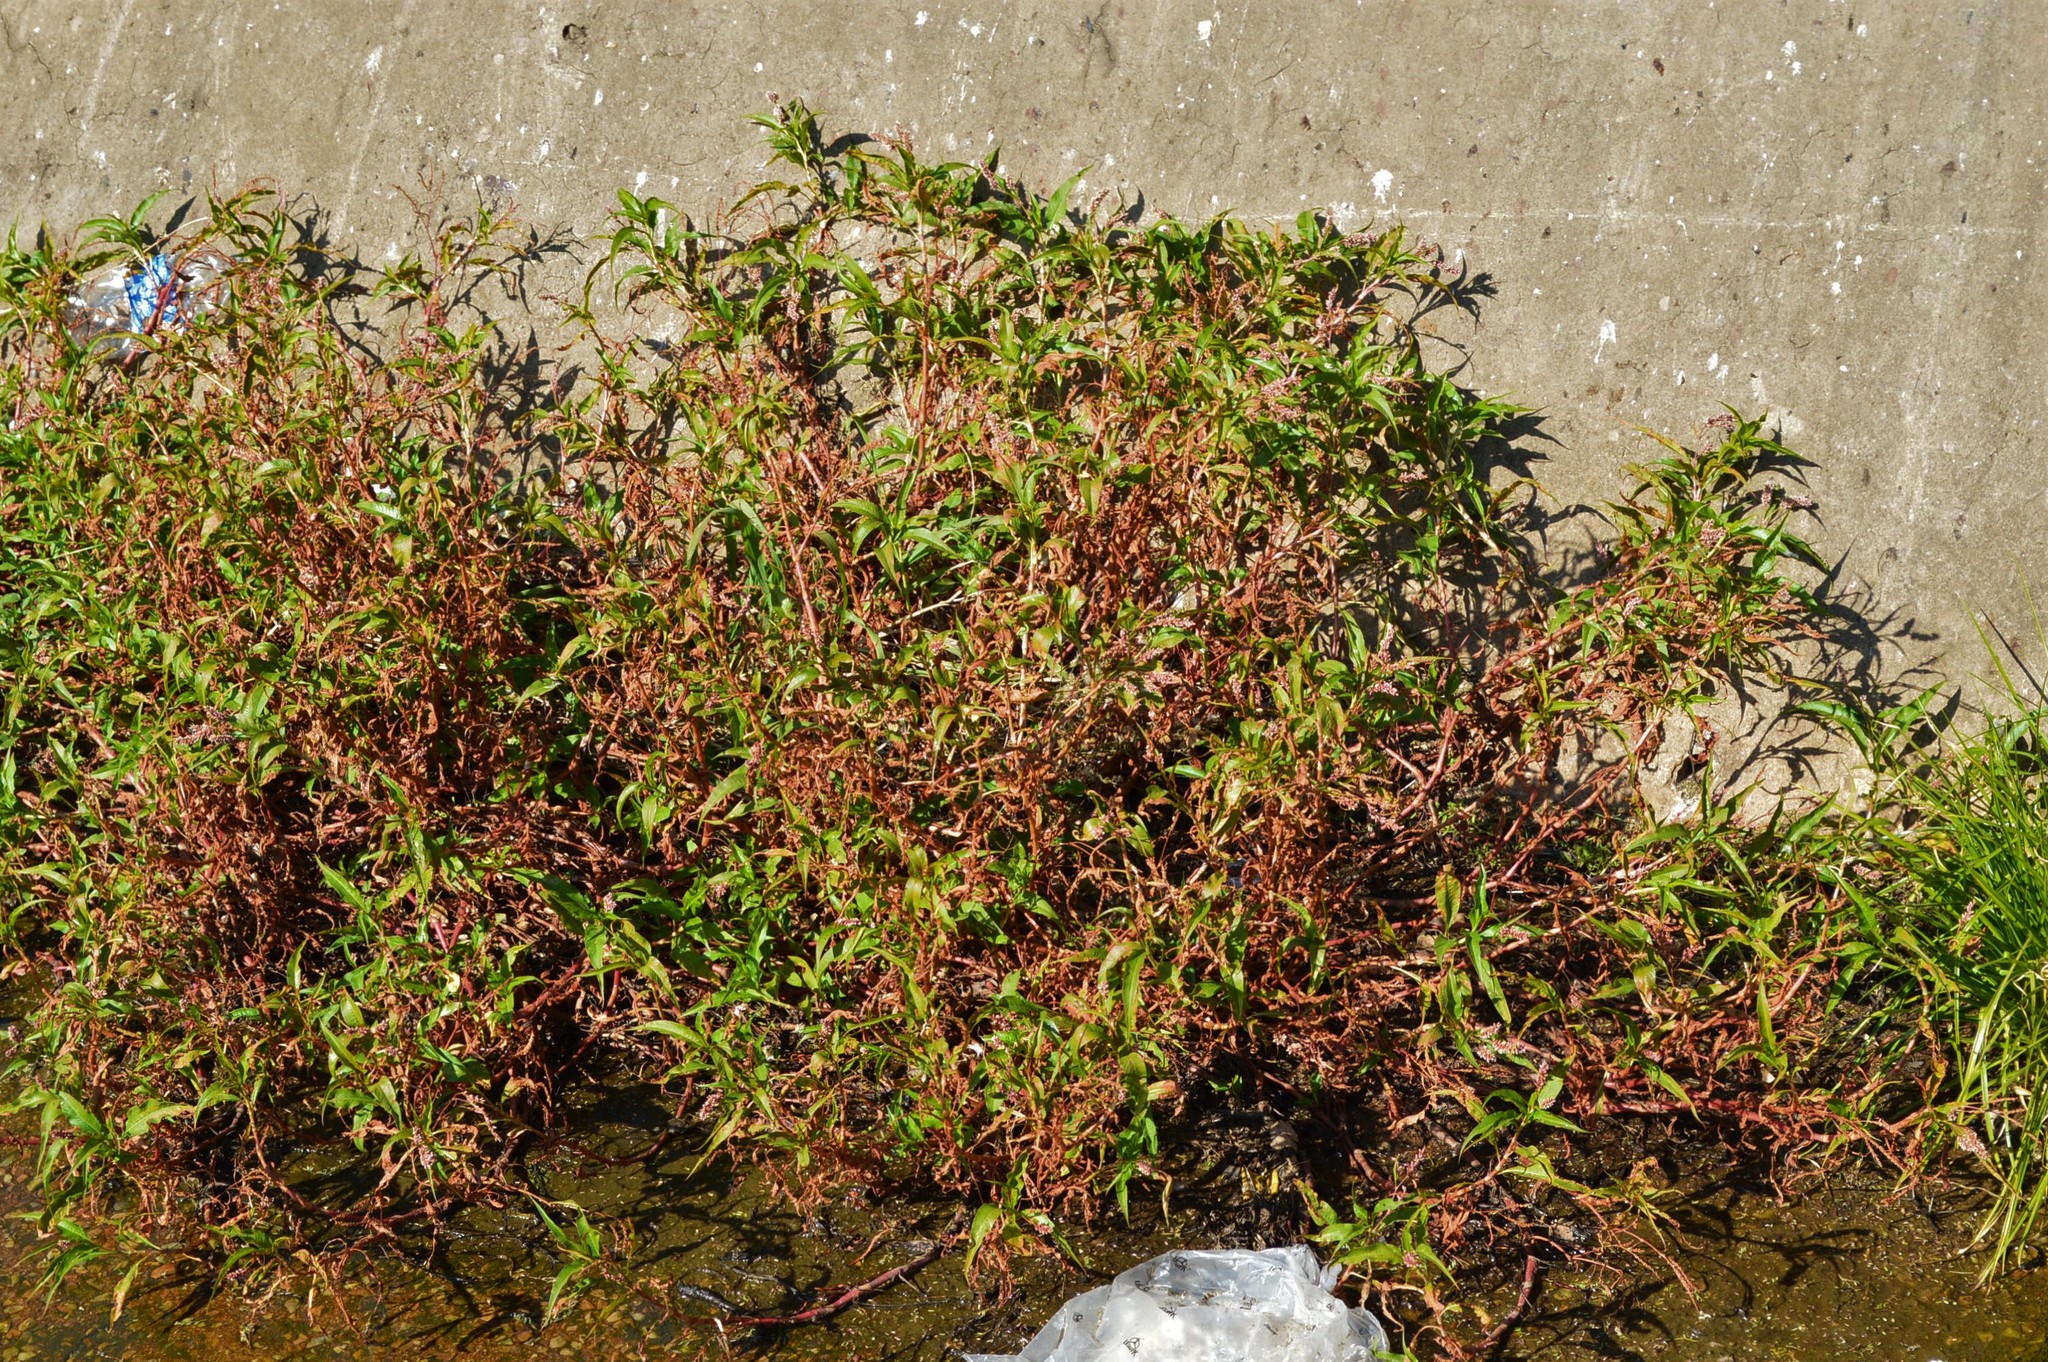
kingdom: Plantae
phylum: Tracheophyta
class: Magnoliopsida
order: Caryophyllales
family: Polygonaceae
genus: Persicaria
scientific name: Persicaria lapathifolia
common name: Curlytop knotweed
